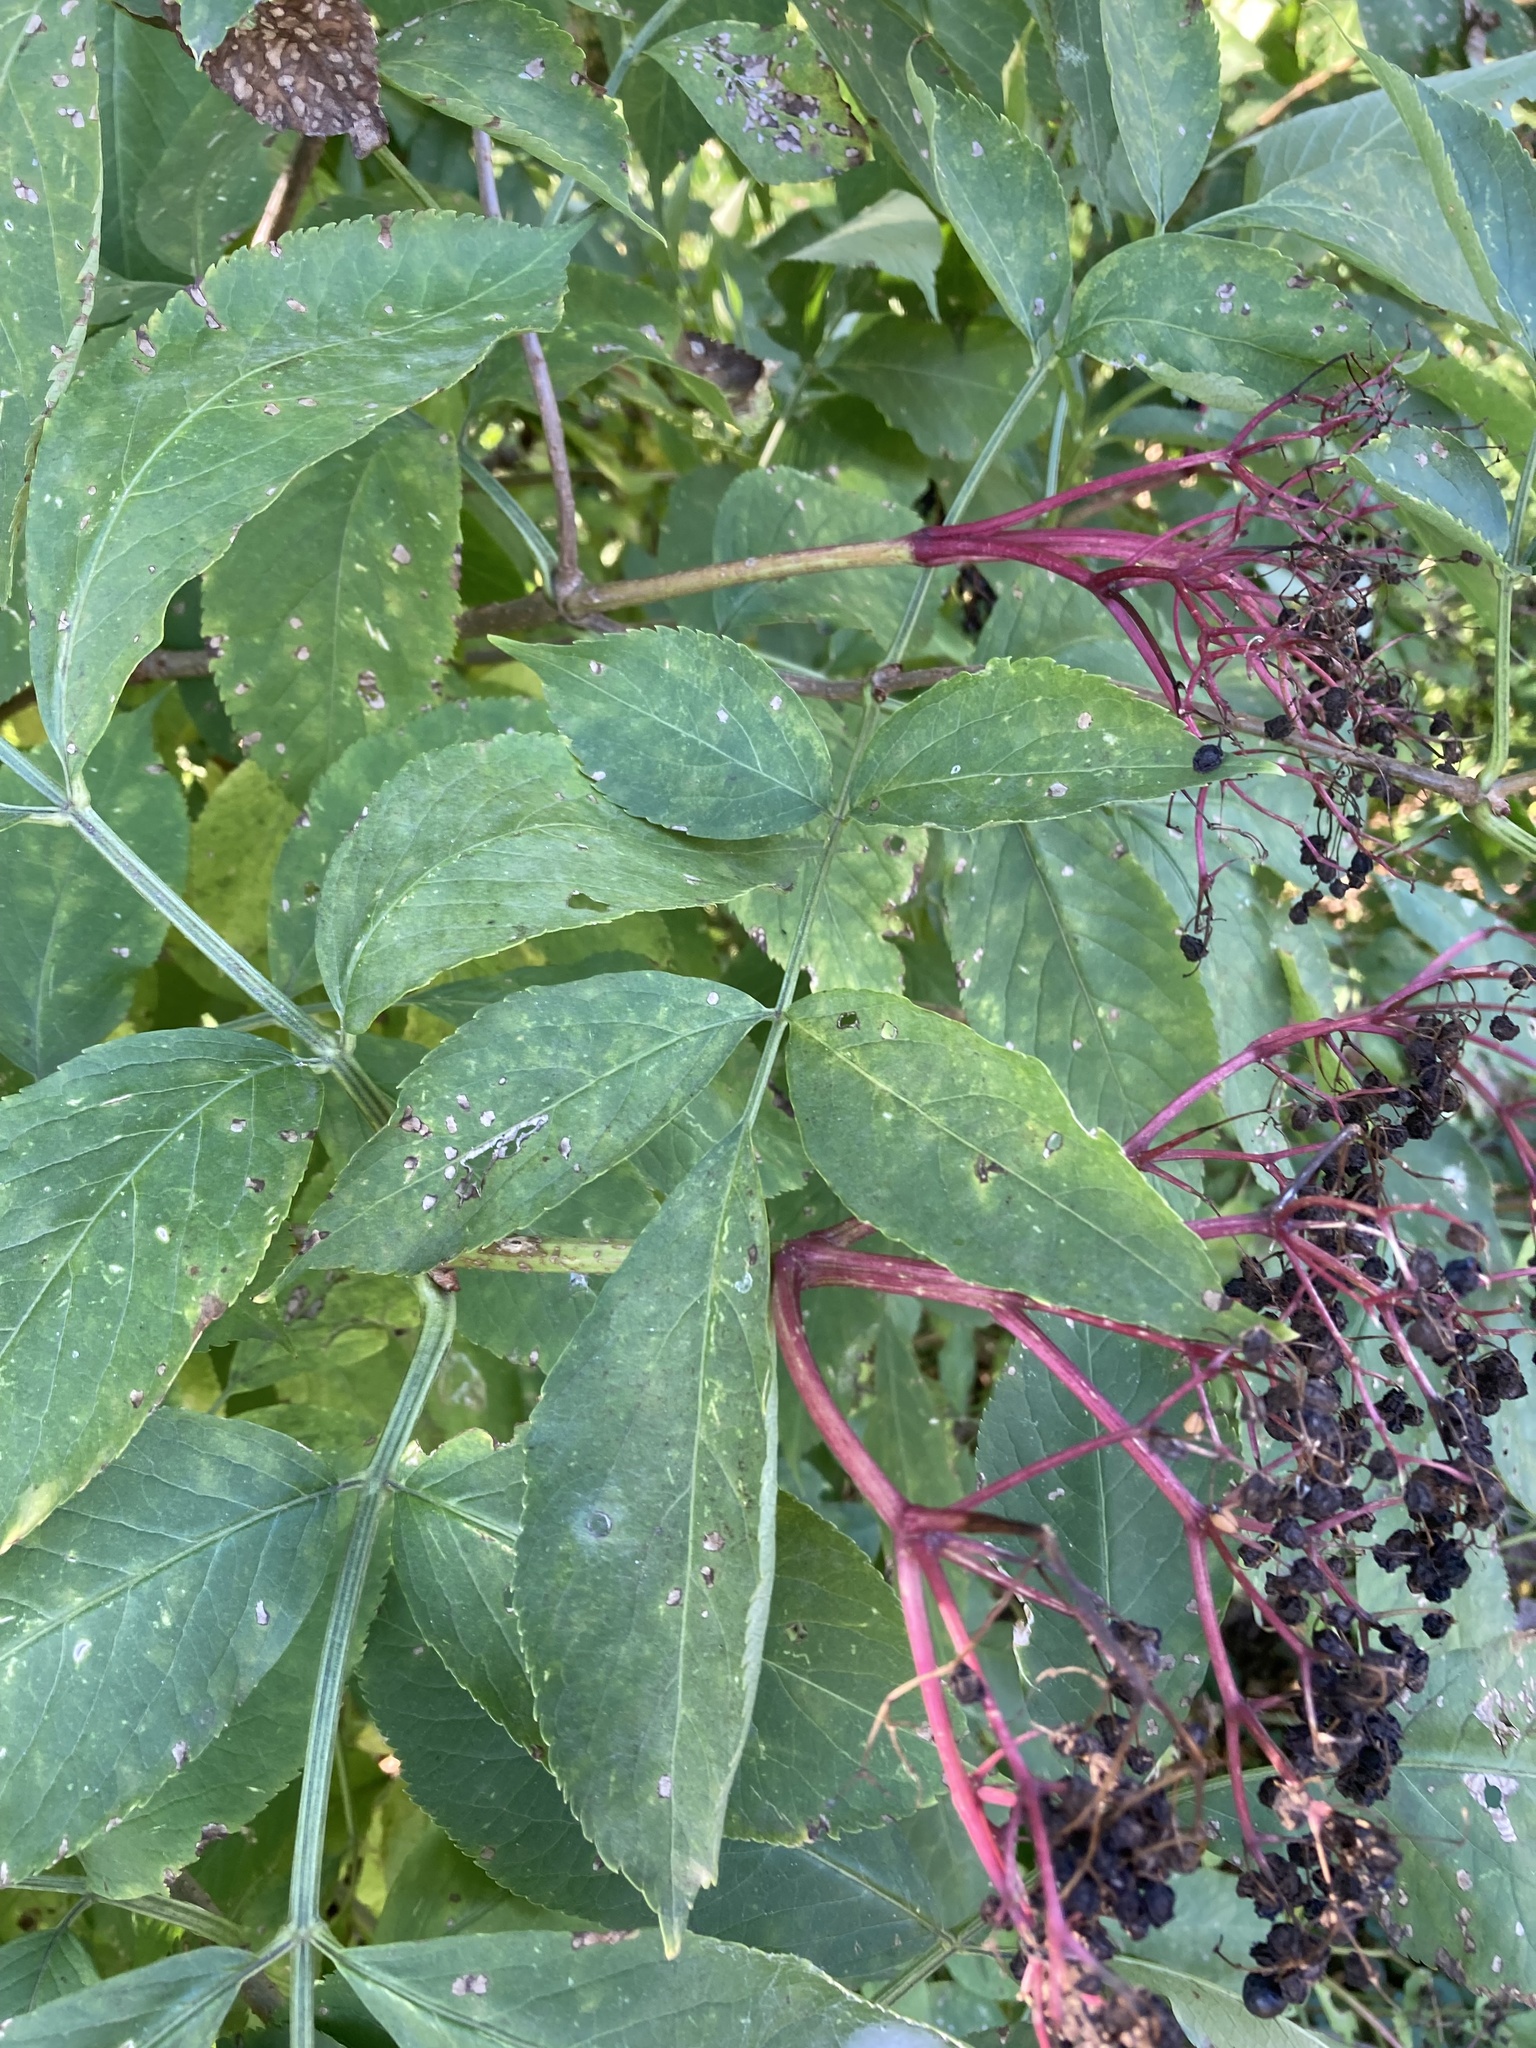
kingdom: Plantae
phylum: Tracheophyta
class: Magnoliopsida
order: Dipsacales
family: Viburnaceae
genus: Sambucus
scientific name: Sambucus nigra
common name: Elder
